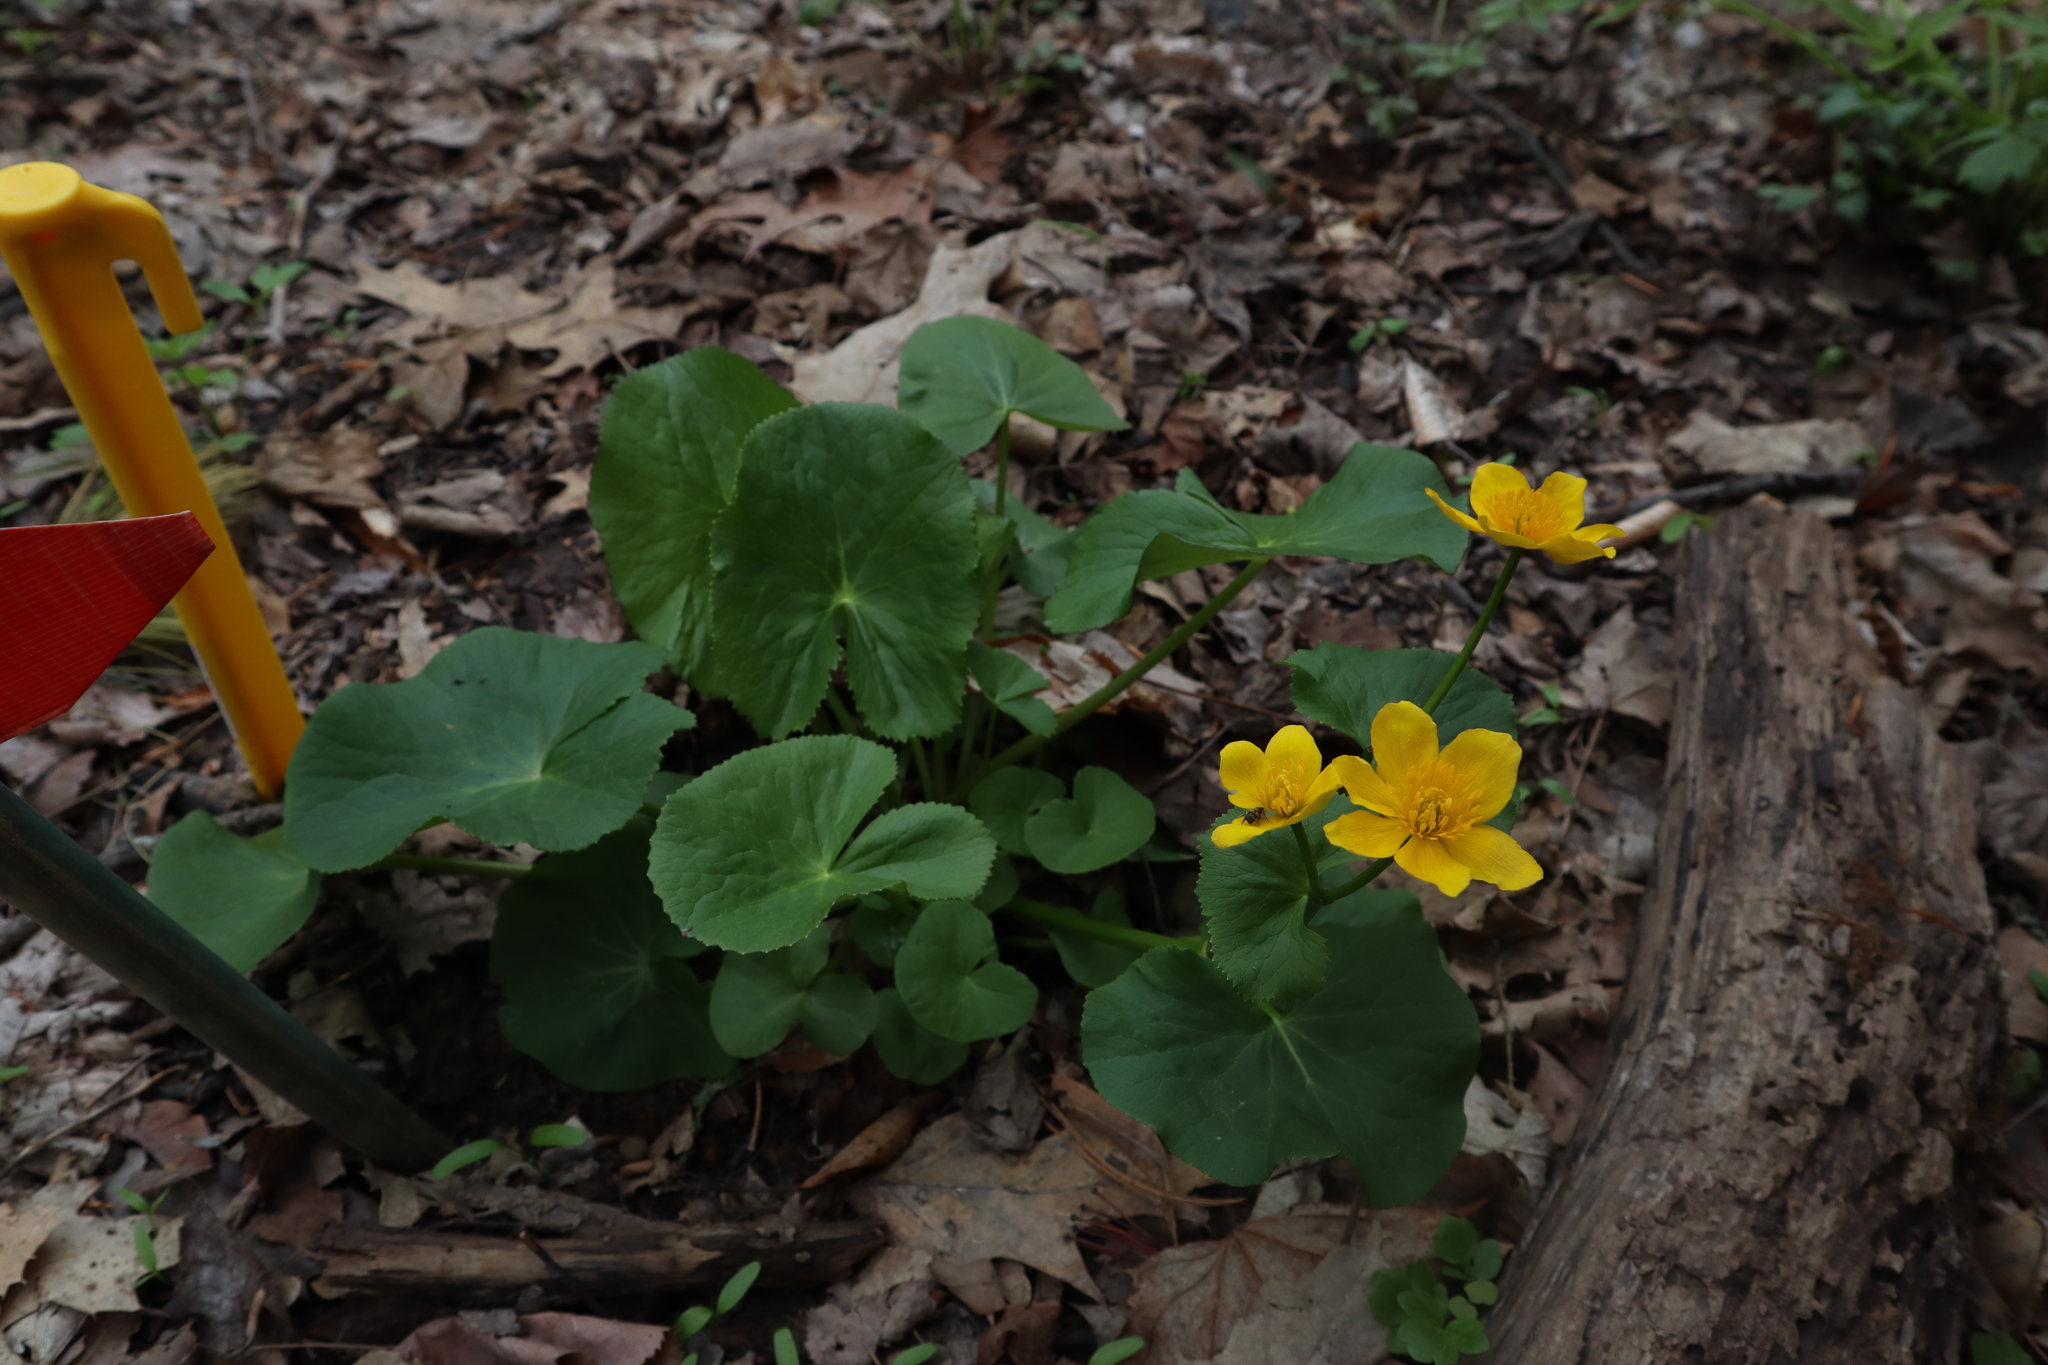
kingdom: Plantae
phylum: Tracheophyta
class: Magnoliopsida
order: Ranunculales
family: Ranunculaceae
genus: Caltha
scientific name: Caltha palustris
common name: Marsh marigold
